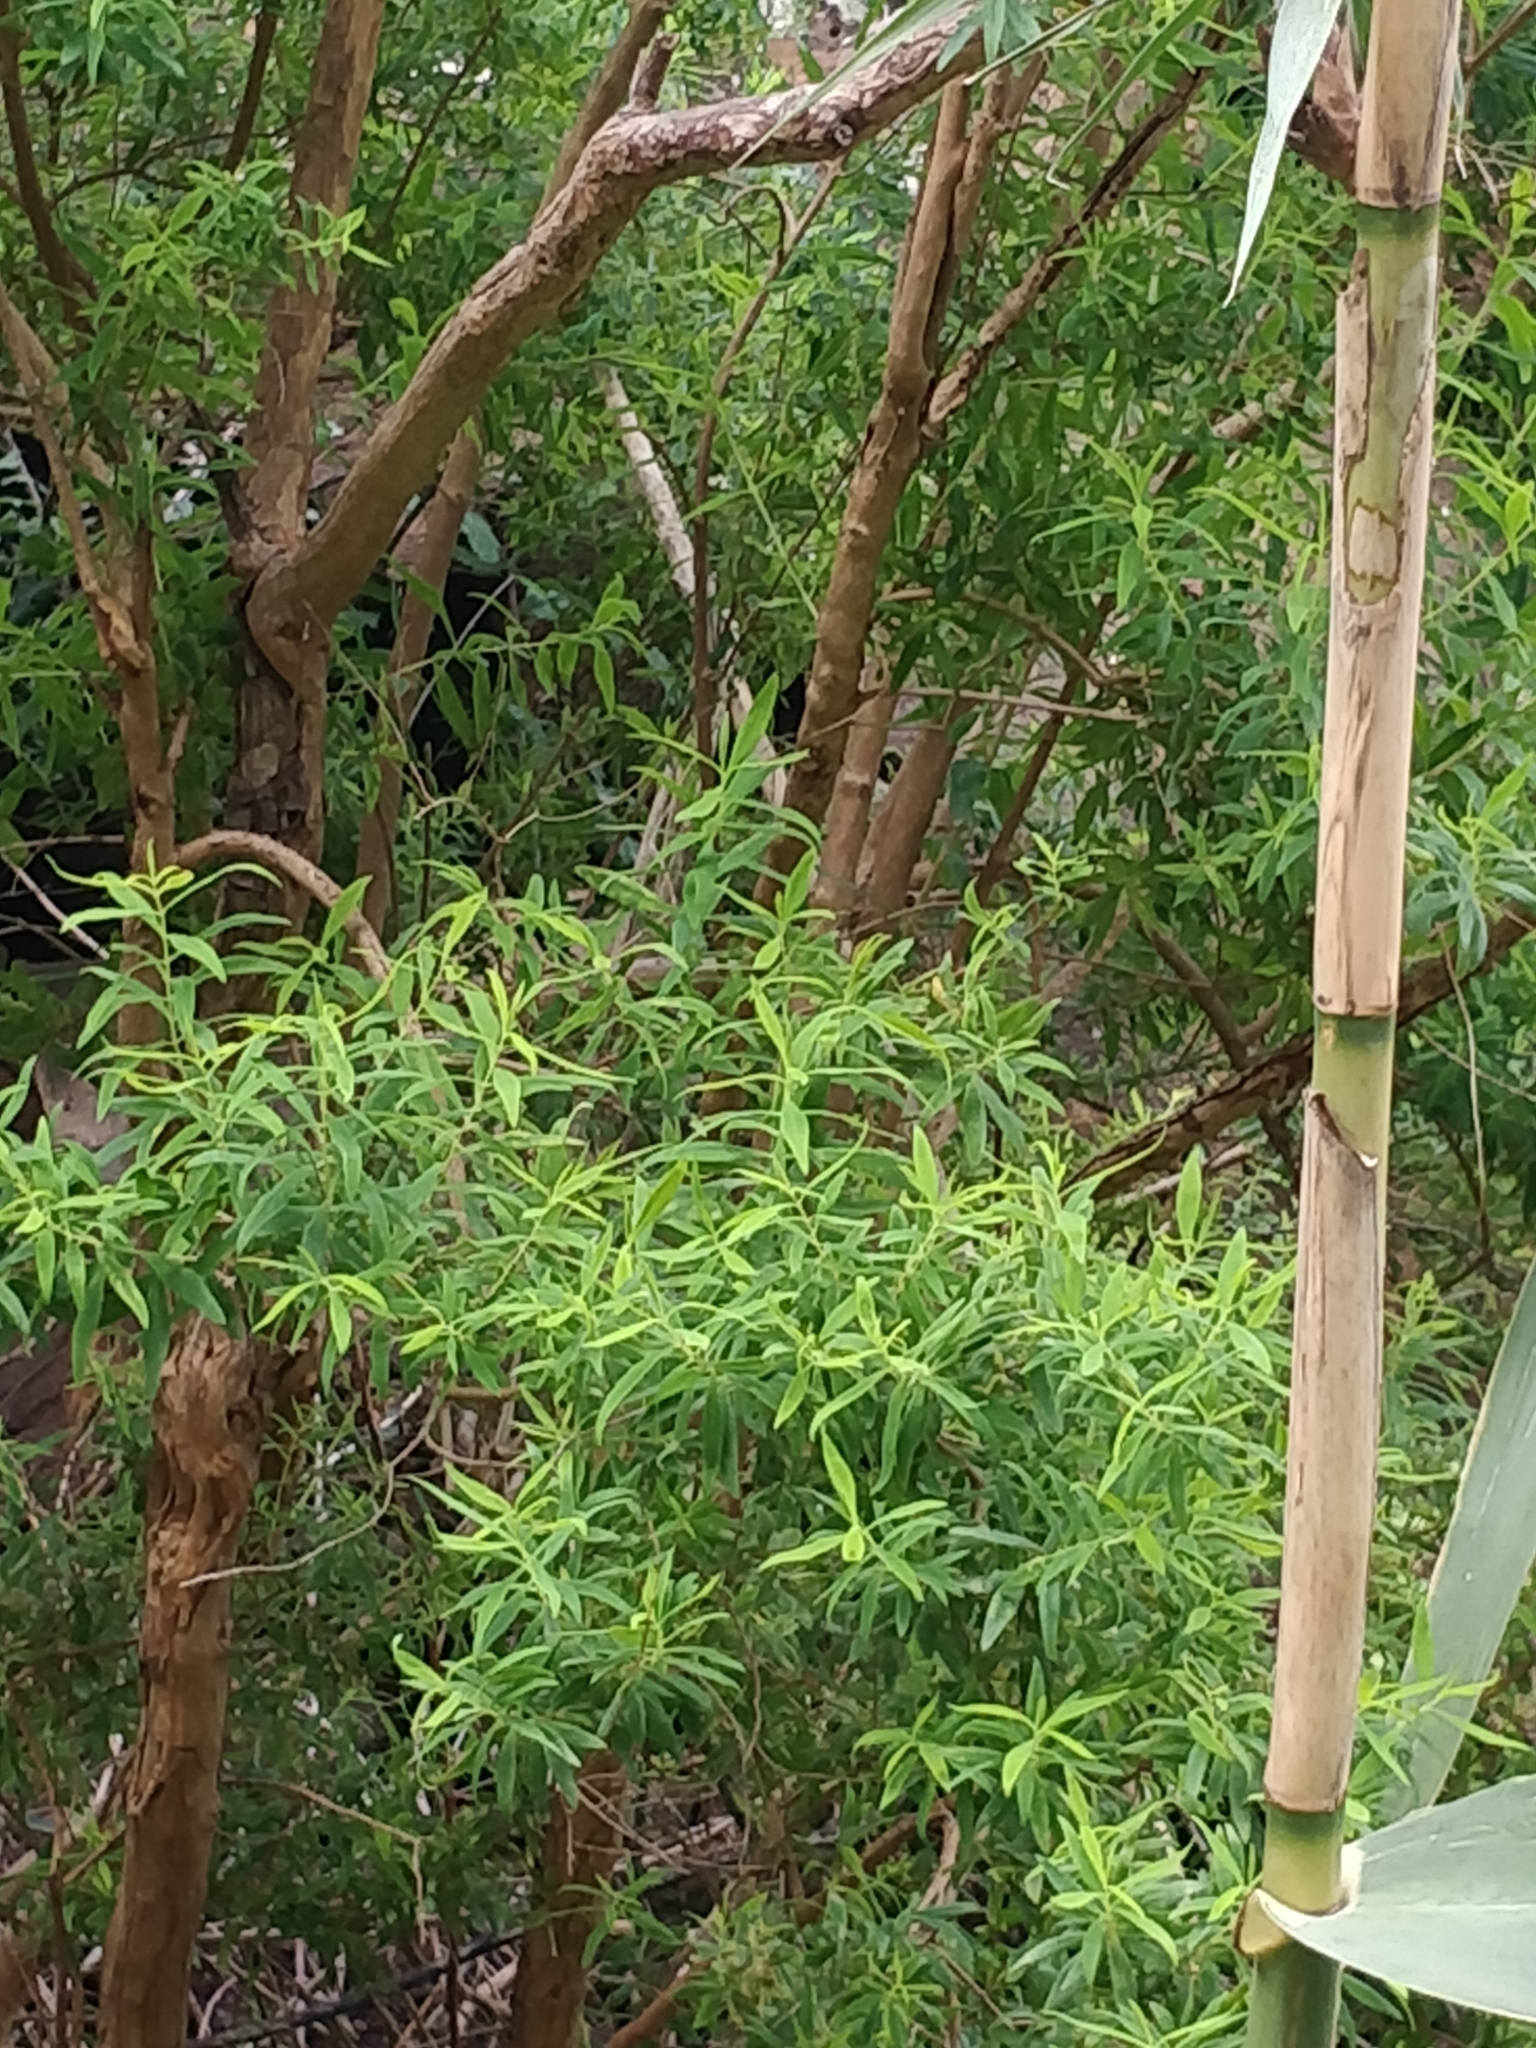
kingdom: Plantae
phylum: Tracheophyta
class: Magnoliopsida
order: Malpighiales
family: Hypericaceae
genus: Hypericum
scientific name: Hypericum canariense
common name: Canary island st. johnswort
